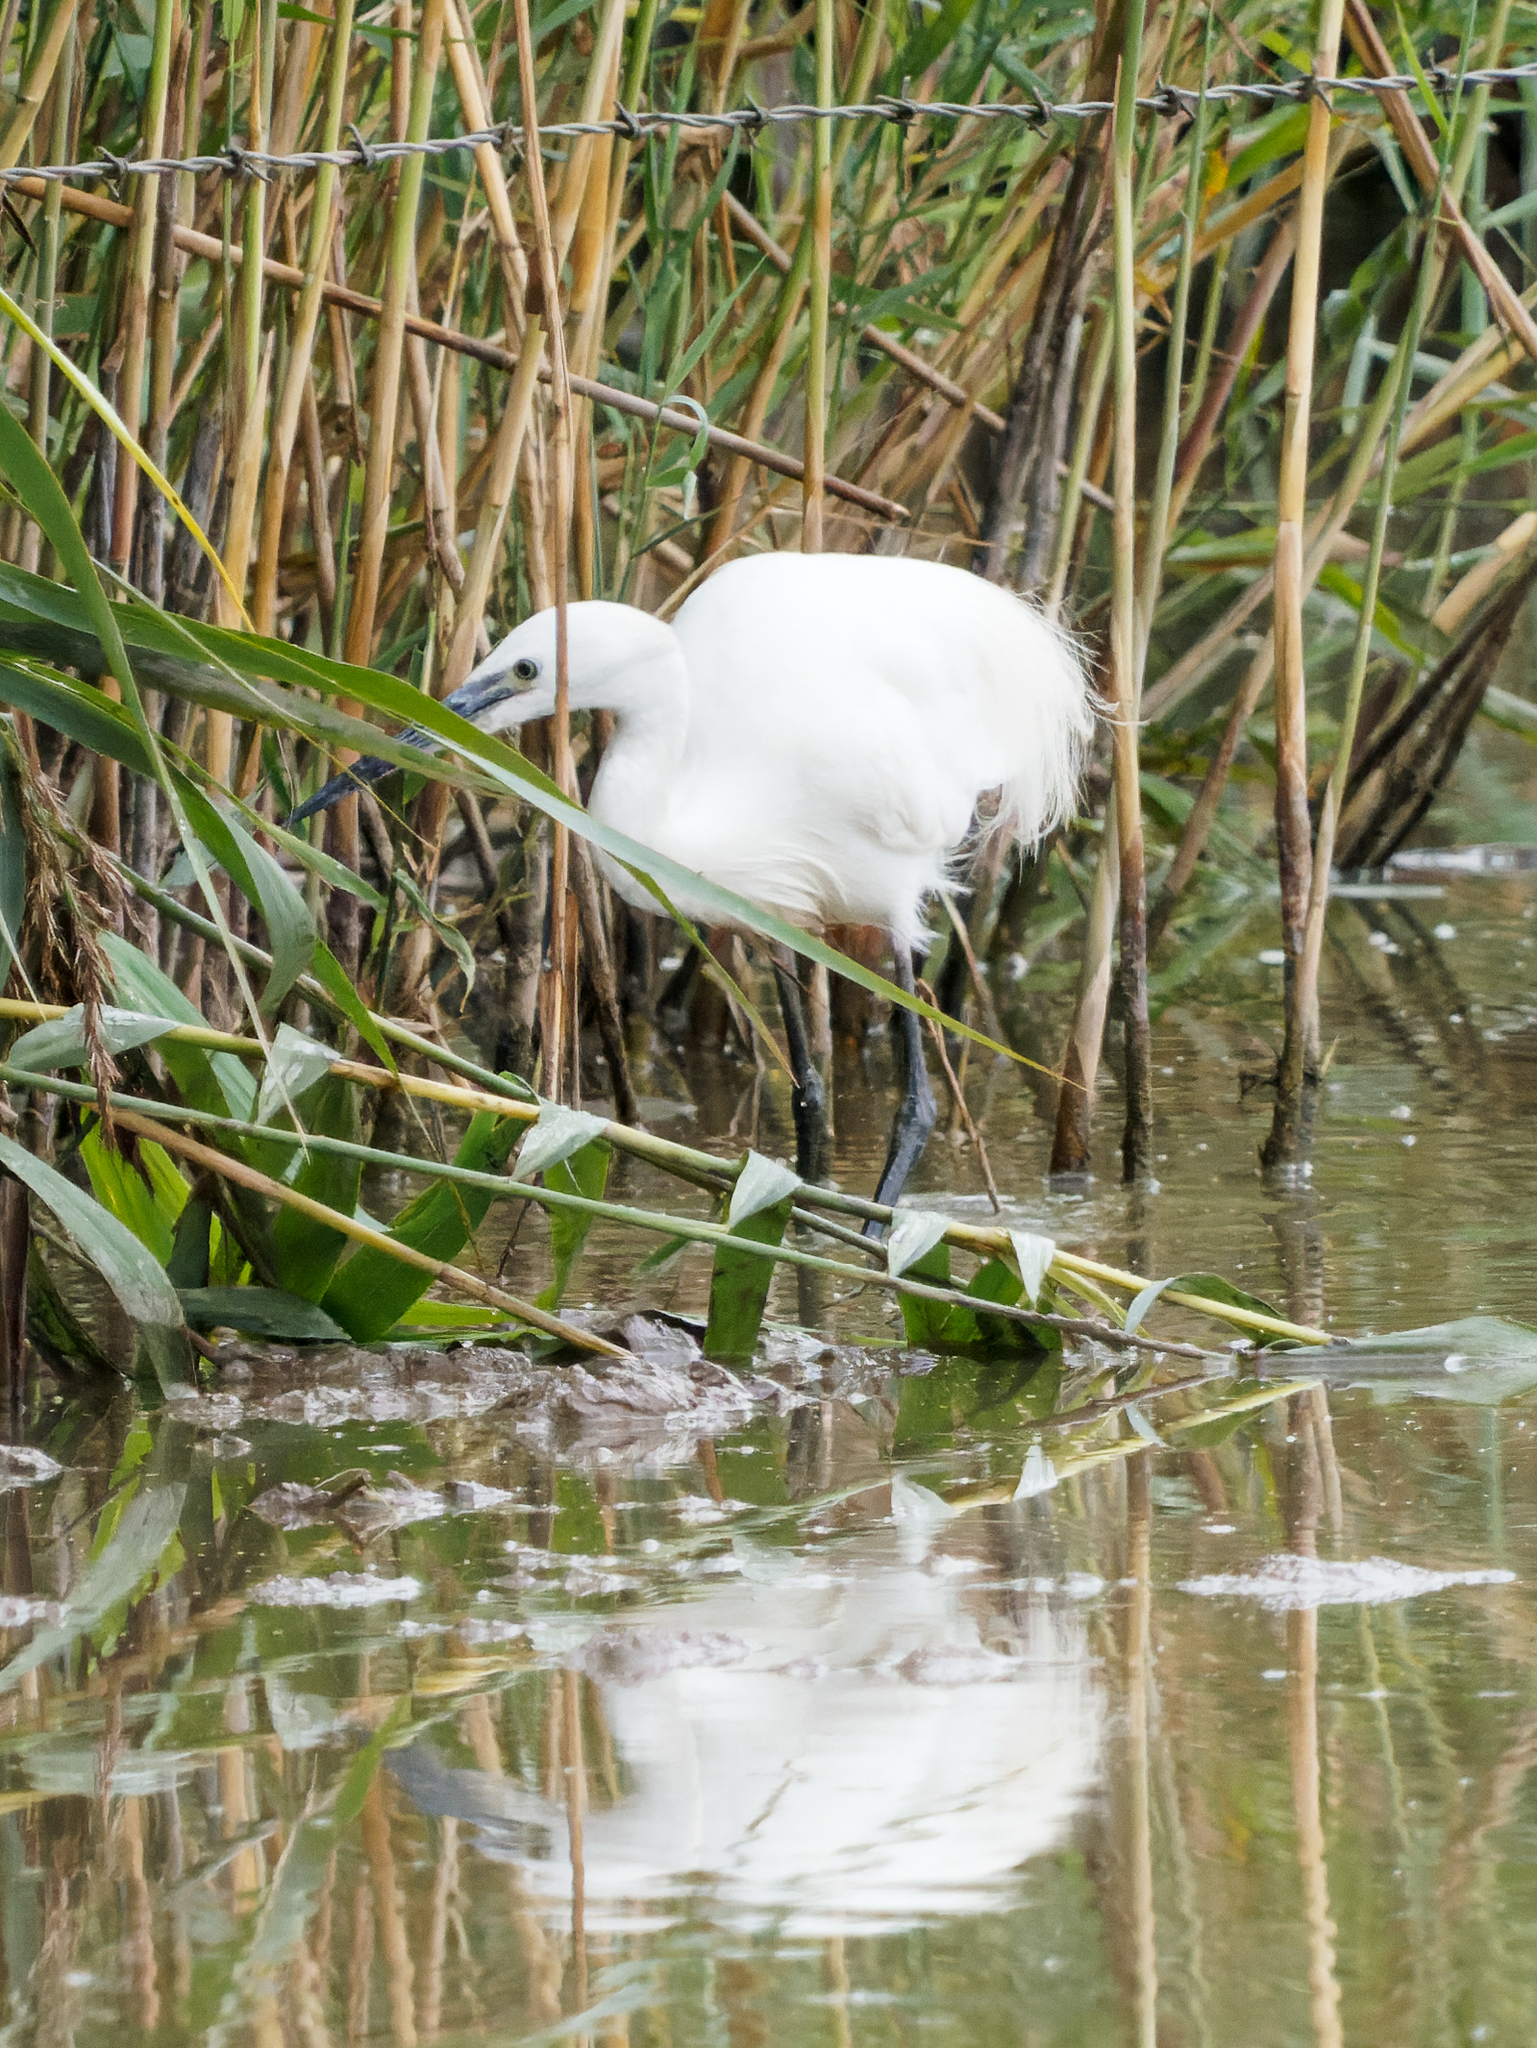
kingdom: Animalia
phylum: Chordata
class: Aves
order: Pelecaniformes
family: Ardeidae
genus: Egretta
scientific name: Egretta garzetta
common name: Little egret
